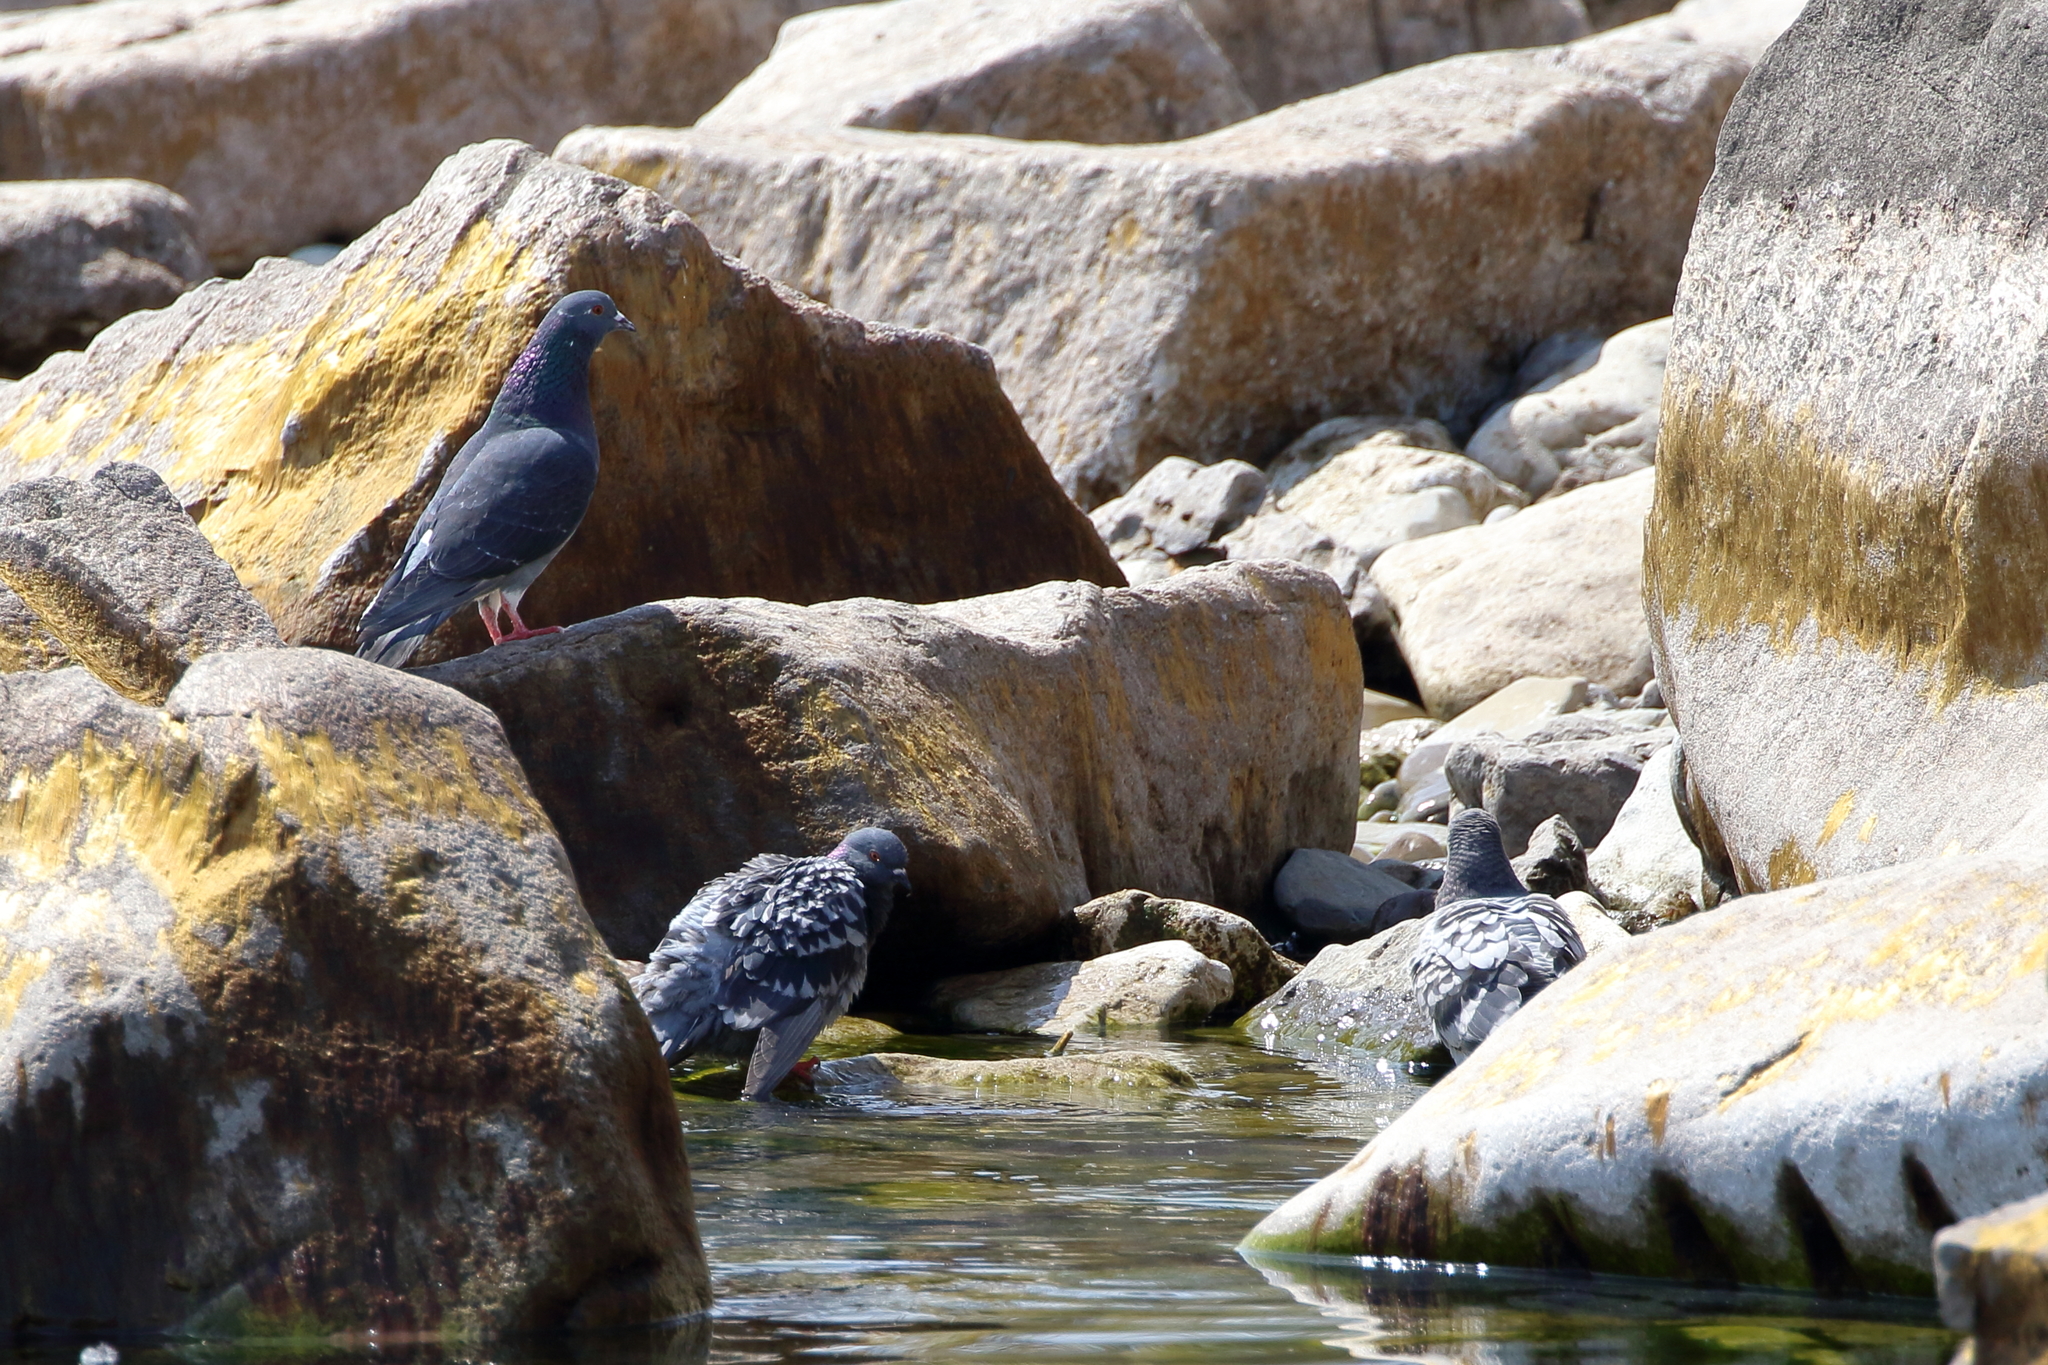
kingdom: Animalia
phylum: Chordata
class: Aves
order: Columbiformes
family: Columbidae
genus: Columba
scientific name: Columba livia
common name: Rock pigeon
